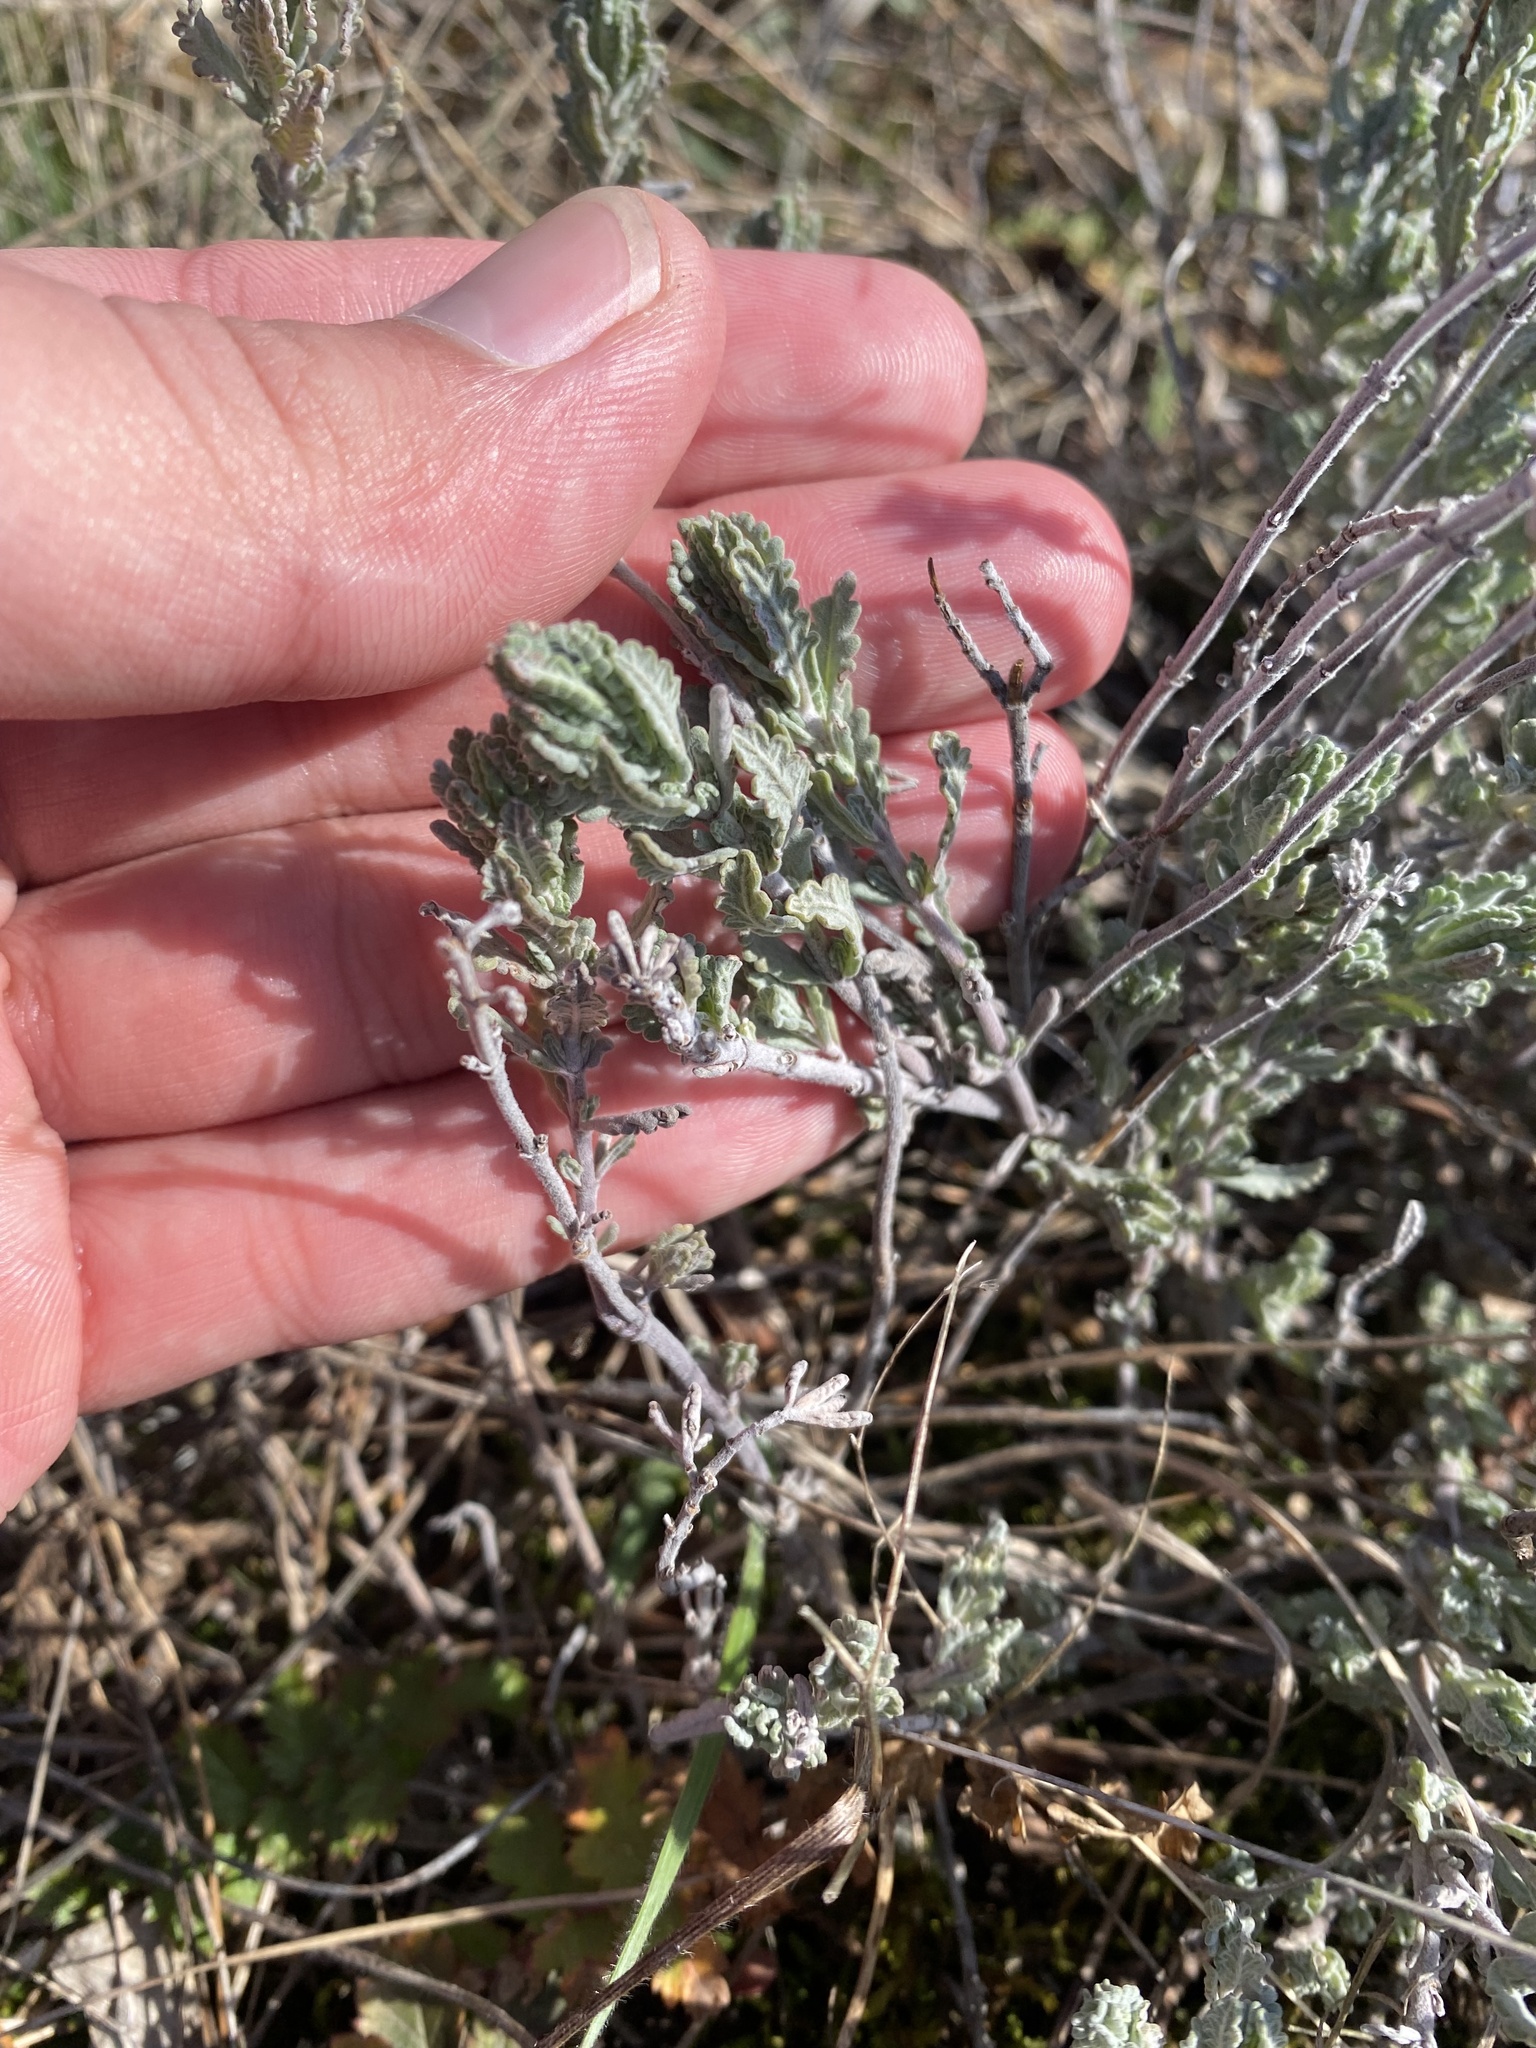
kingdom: Plantae
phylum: Tracheophyta
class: Magnoliopsida
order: Lamiales
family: Lamiaceae
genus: Teucrium
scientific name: Teucrium polium
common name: Poley
